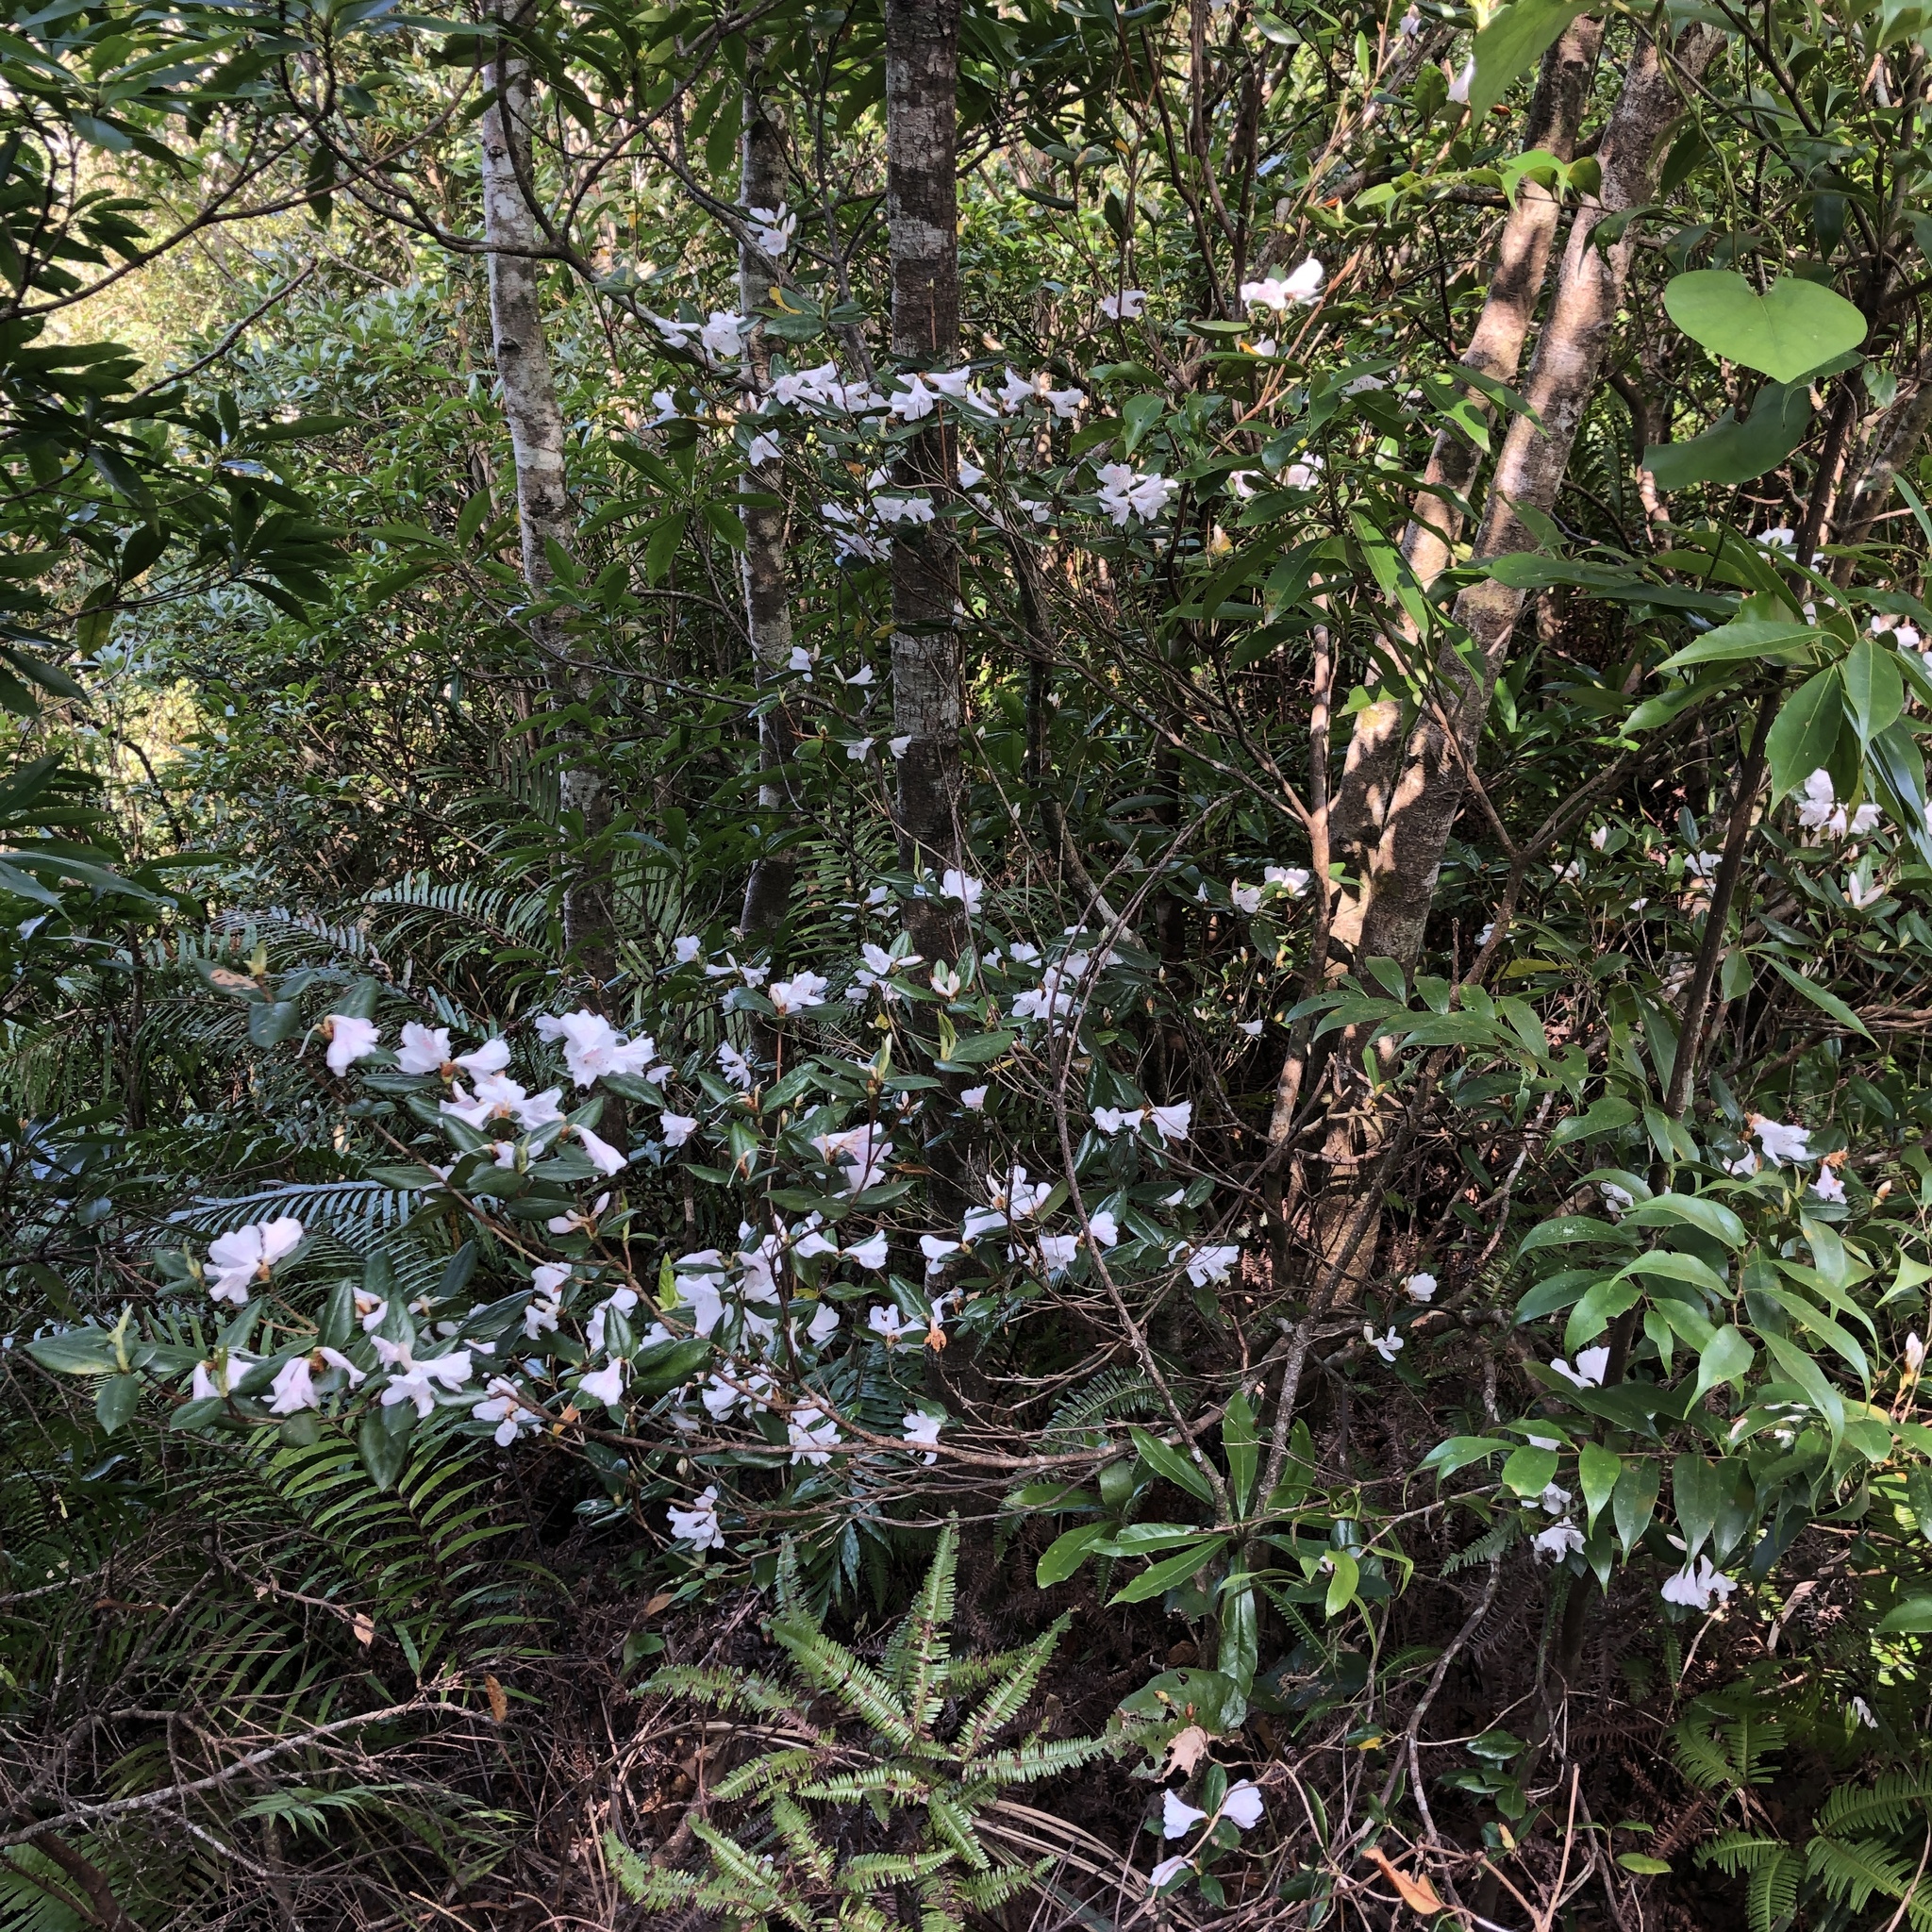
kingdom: Plantae
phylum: Tracheophyta
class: Magnoliopsida
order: Ericales
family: Ericaceae
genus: Rhododendron
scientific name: Rhododendron tashiroi
